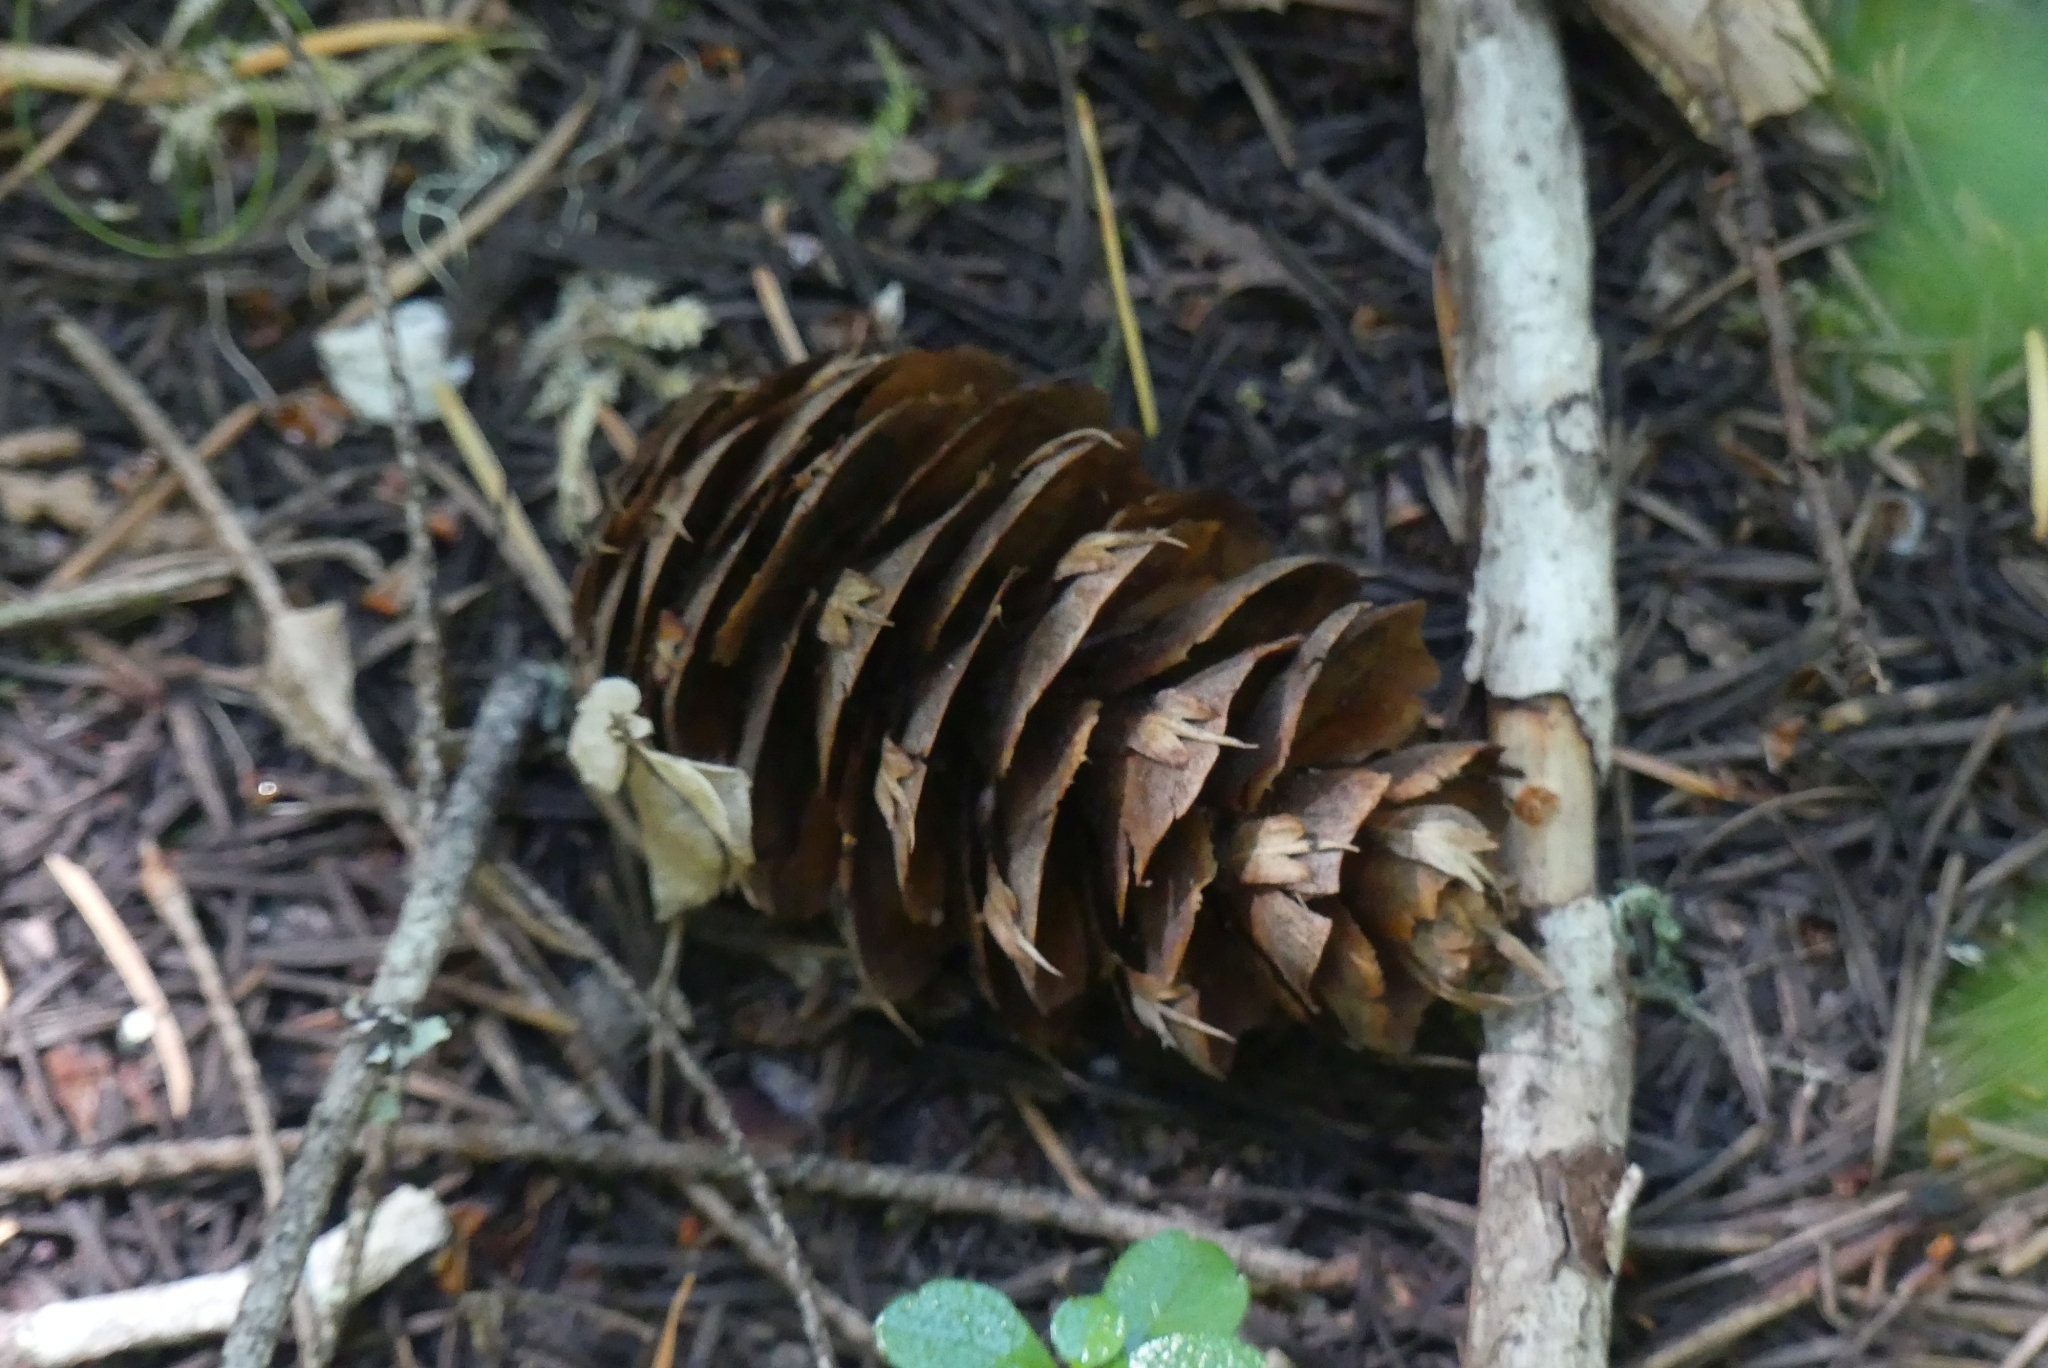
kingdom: Plantae
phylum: Tracheophyta
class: Pinopsida
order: Pinales
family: Pinaceae
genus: Pseudotsuga
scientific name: Pseudotsuga menziesii
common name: Douglas fir
